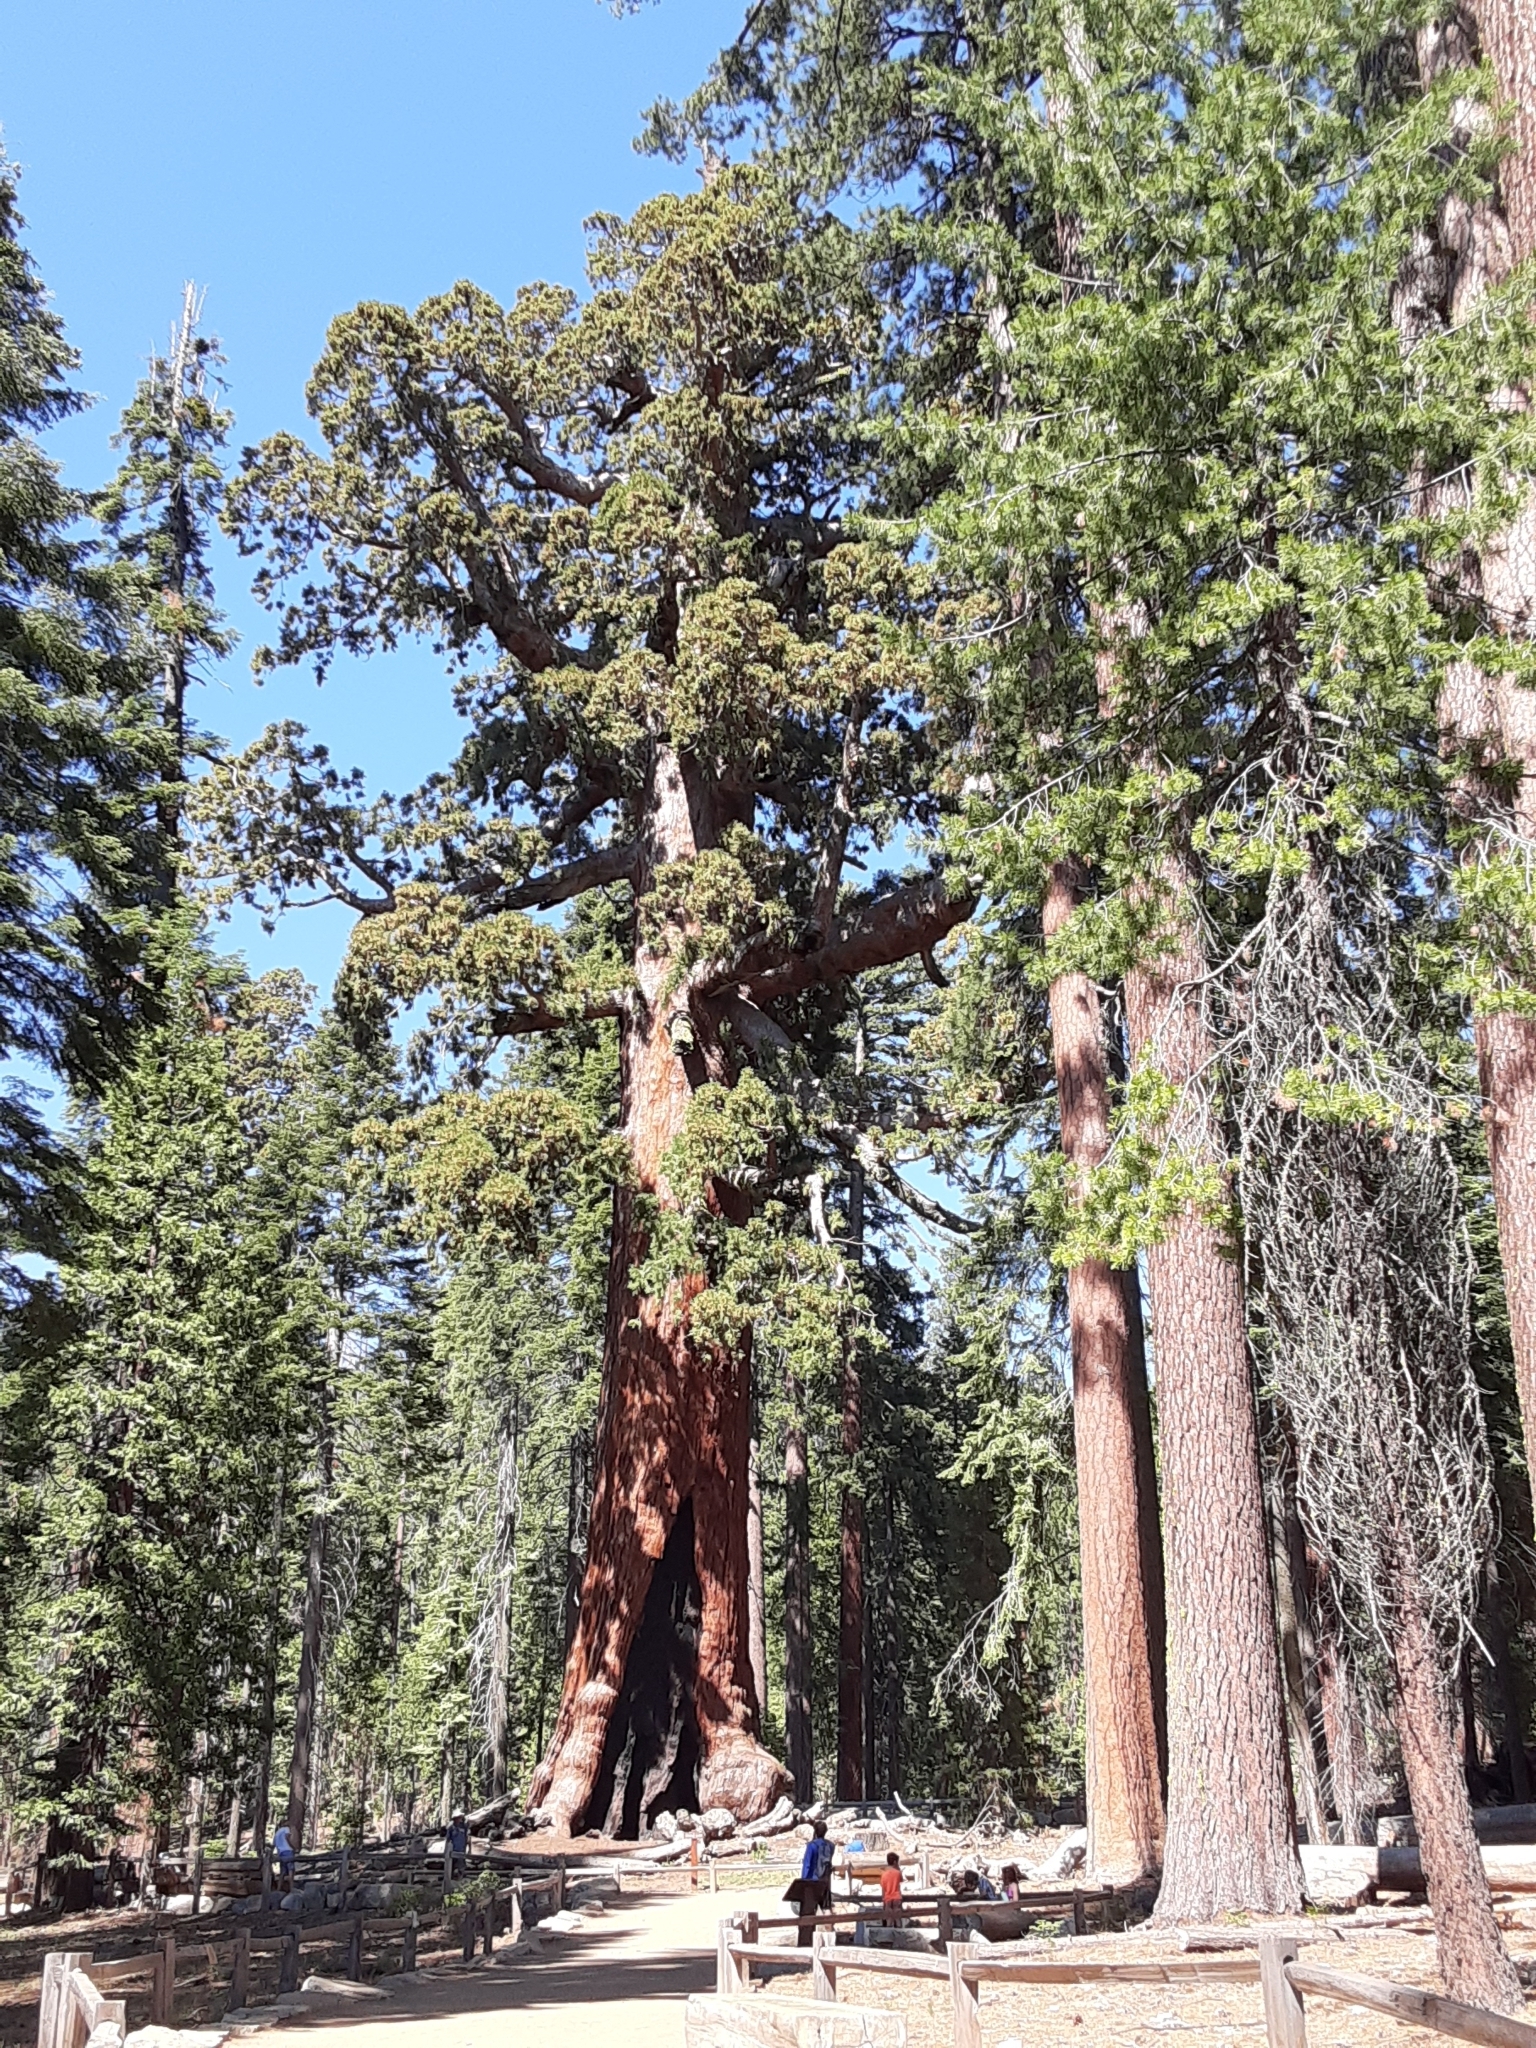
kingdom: Plantae
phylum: Tracheophyta
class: Pinopsida
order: Pinales
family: Cupressaceae
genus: Sequoiadendron
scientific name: Sequoiadendron giganteum
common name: Wellingtonia
